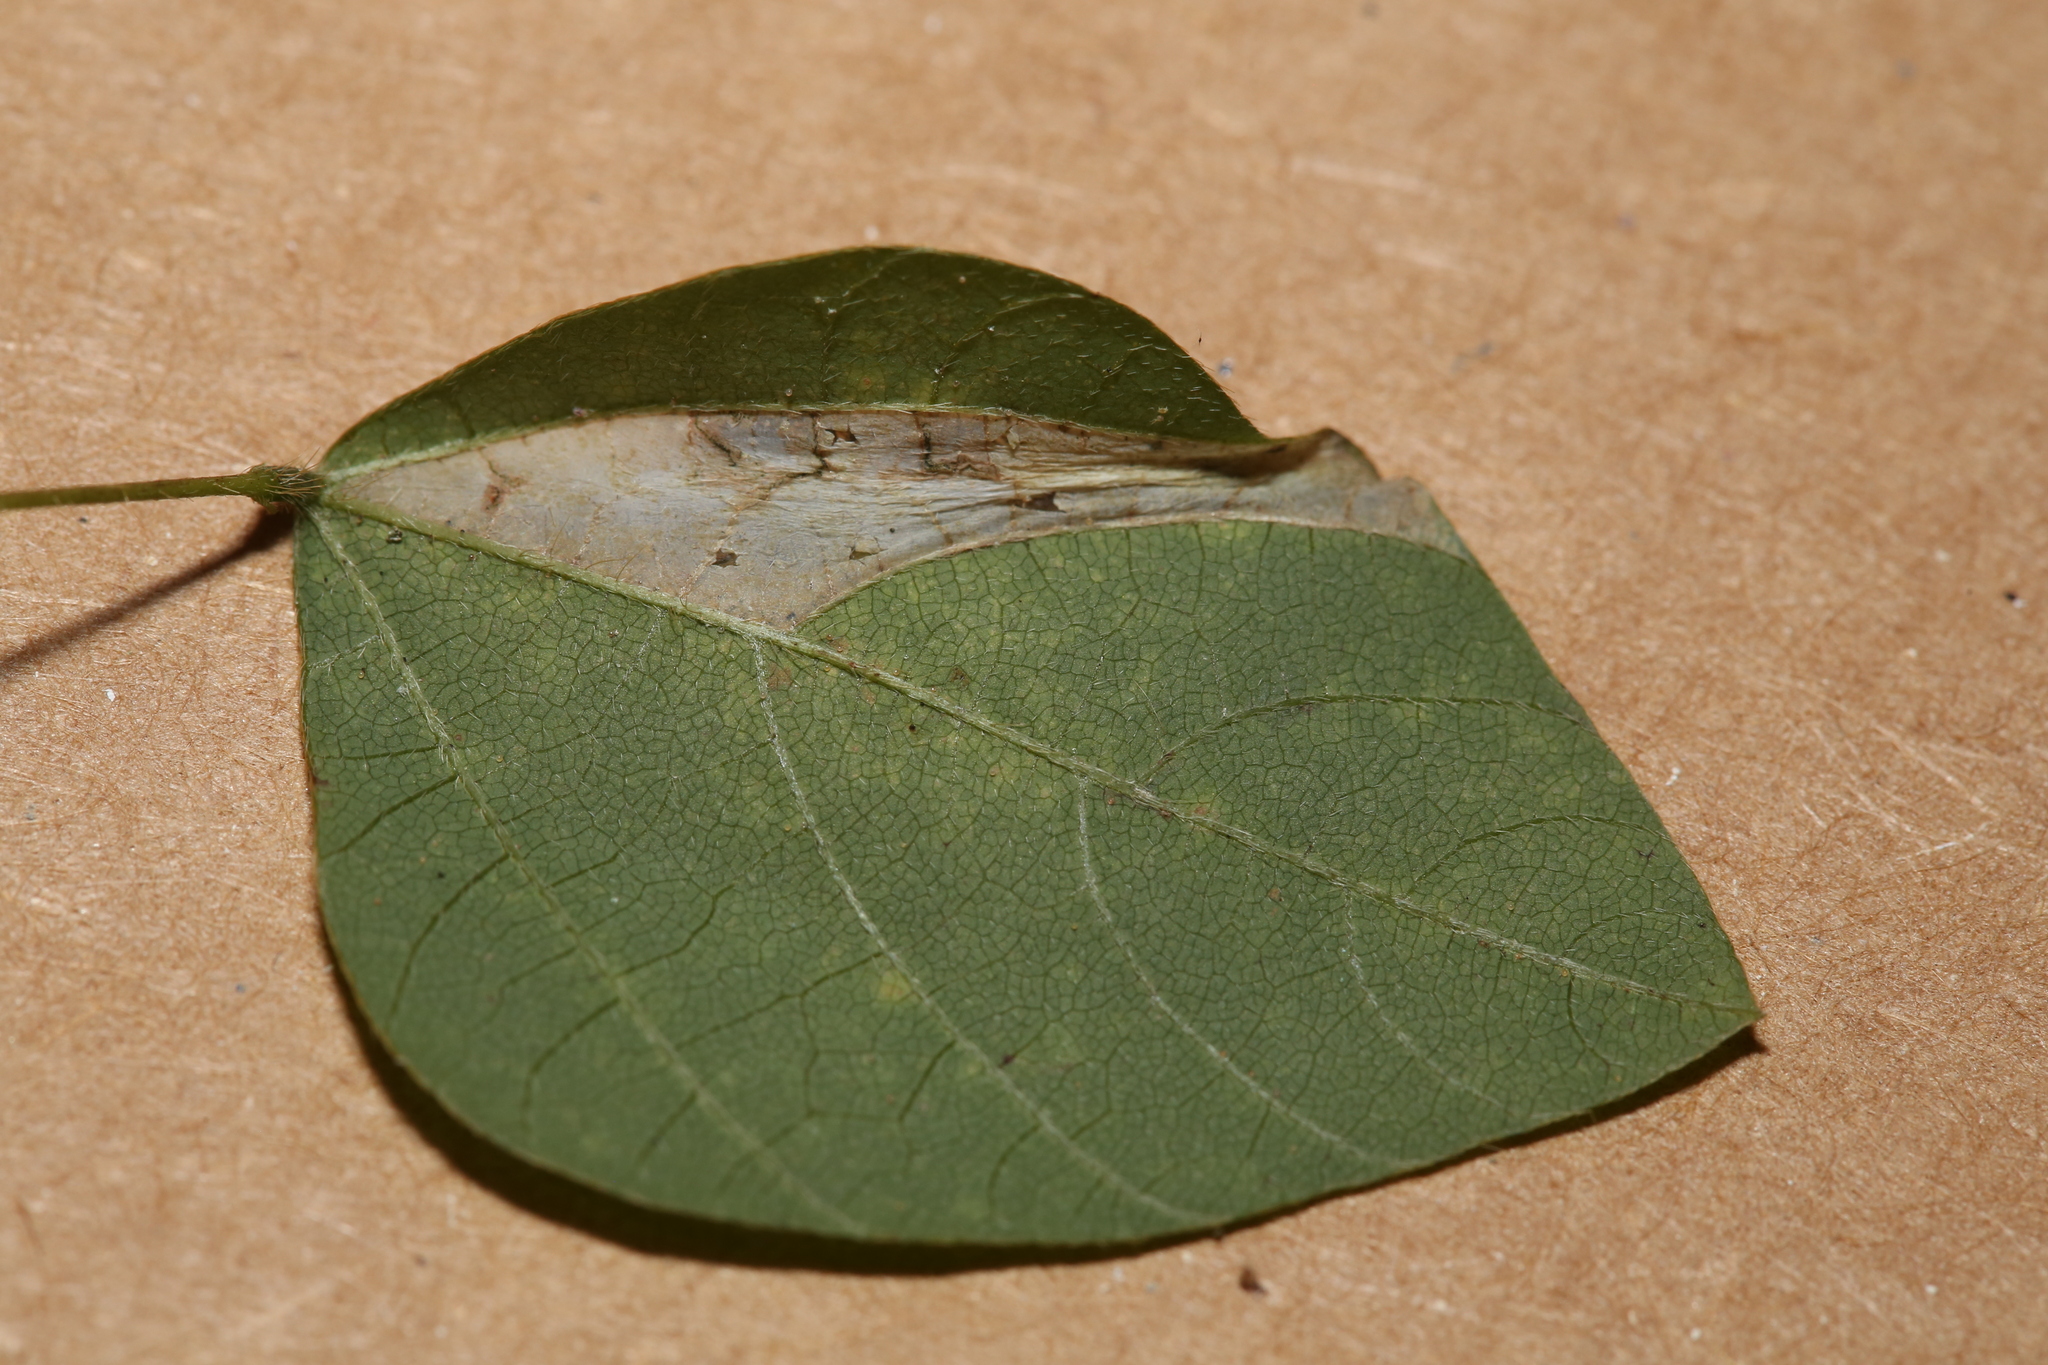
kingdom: Animalia
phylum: Arthropoda
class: Insecta
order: Lepidoptera
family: Gracillariidae
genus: Macrosaccus
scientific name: Macrosaccus morrisella
